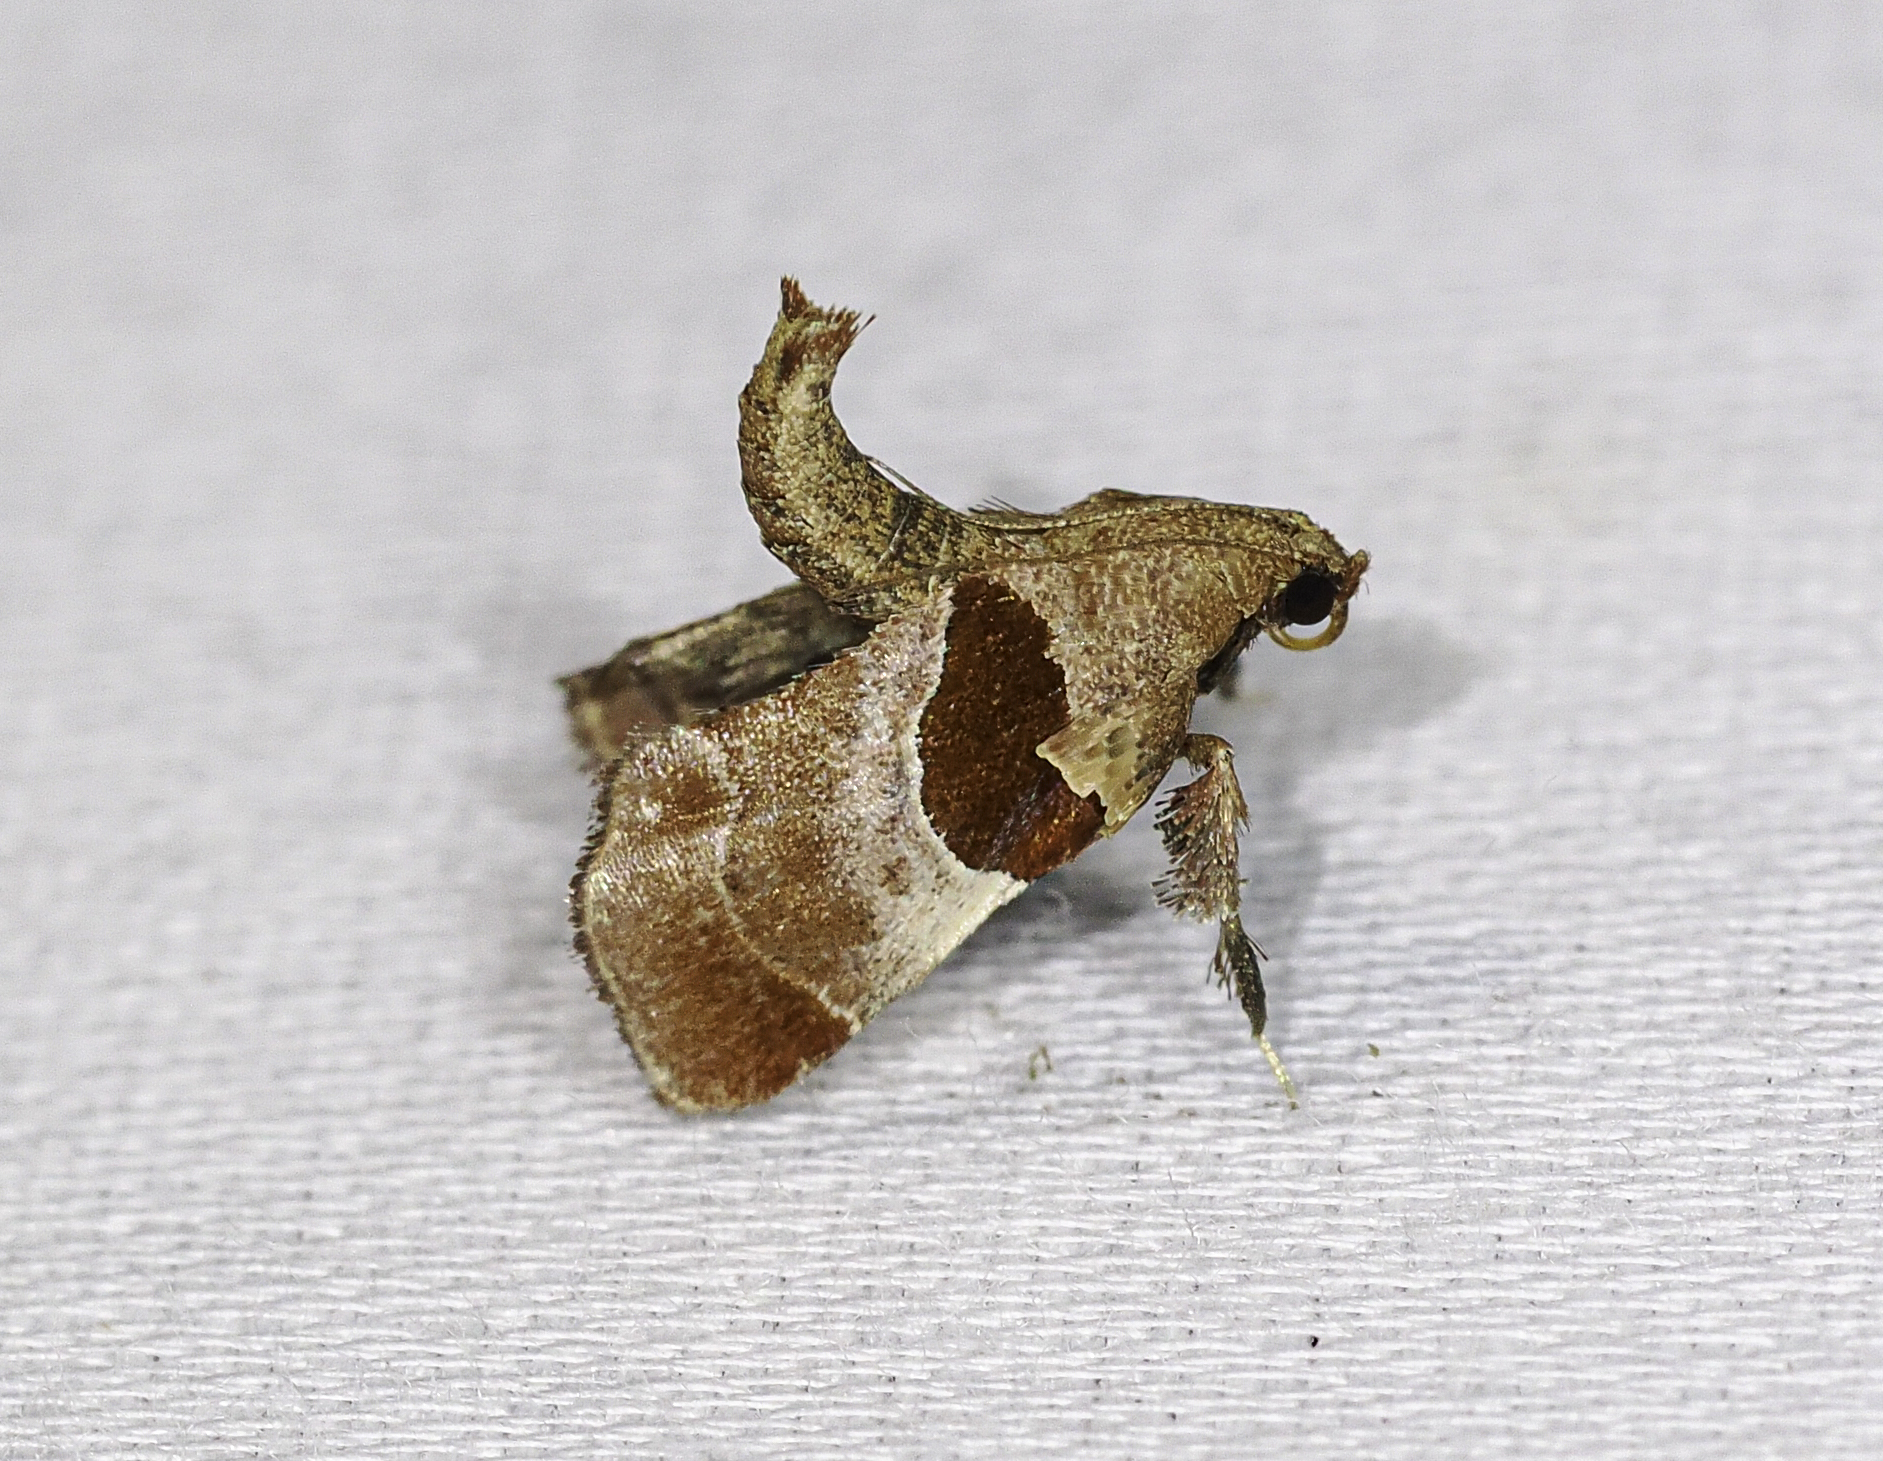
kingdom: Animalia
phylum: Arthropoda
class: Insecta
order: Lepidoptera
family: Pyralidae
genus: Tosale
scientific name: Tosale oviplagalis
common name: Dimorphic tosale moth
